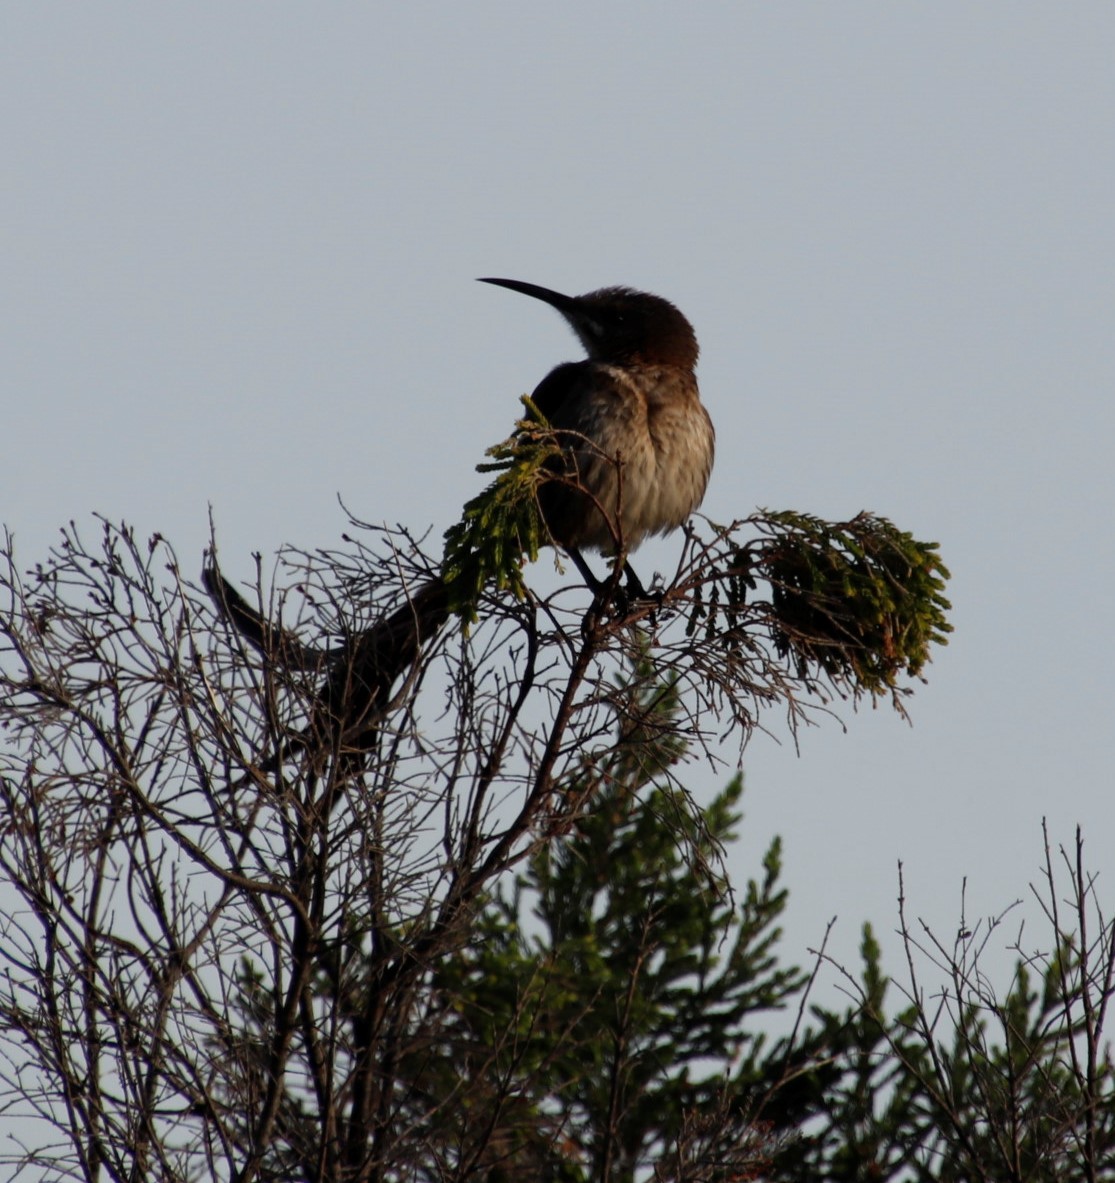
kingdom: Animalia
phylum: Chordata
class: Aves
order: Passeriformes
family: Promeropidae
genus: Promerops
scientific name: Promerops cafer
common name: Cape sugarbird
